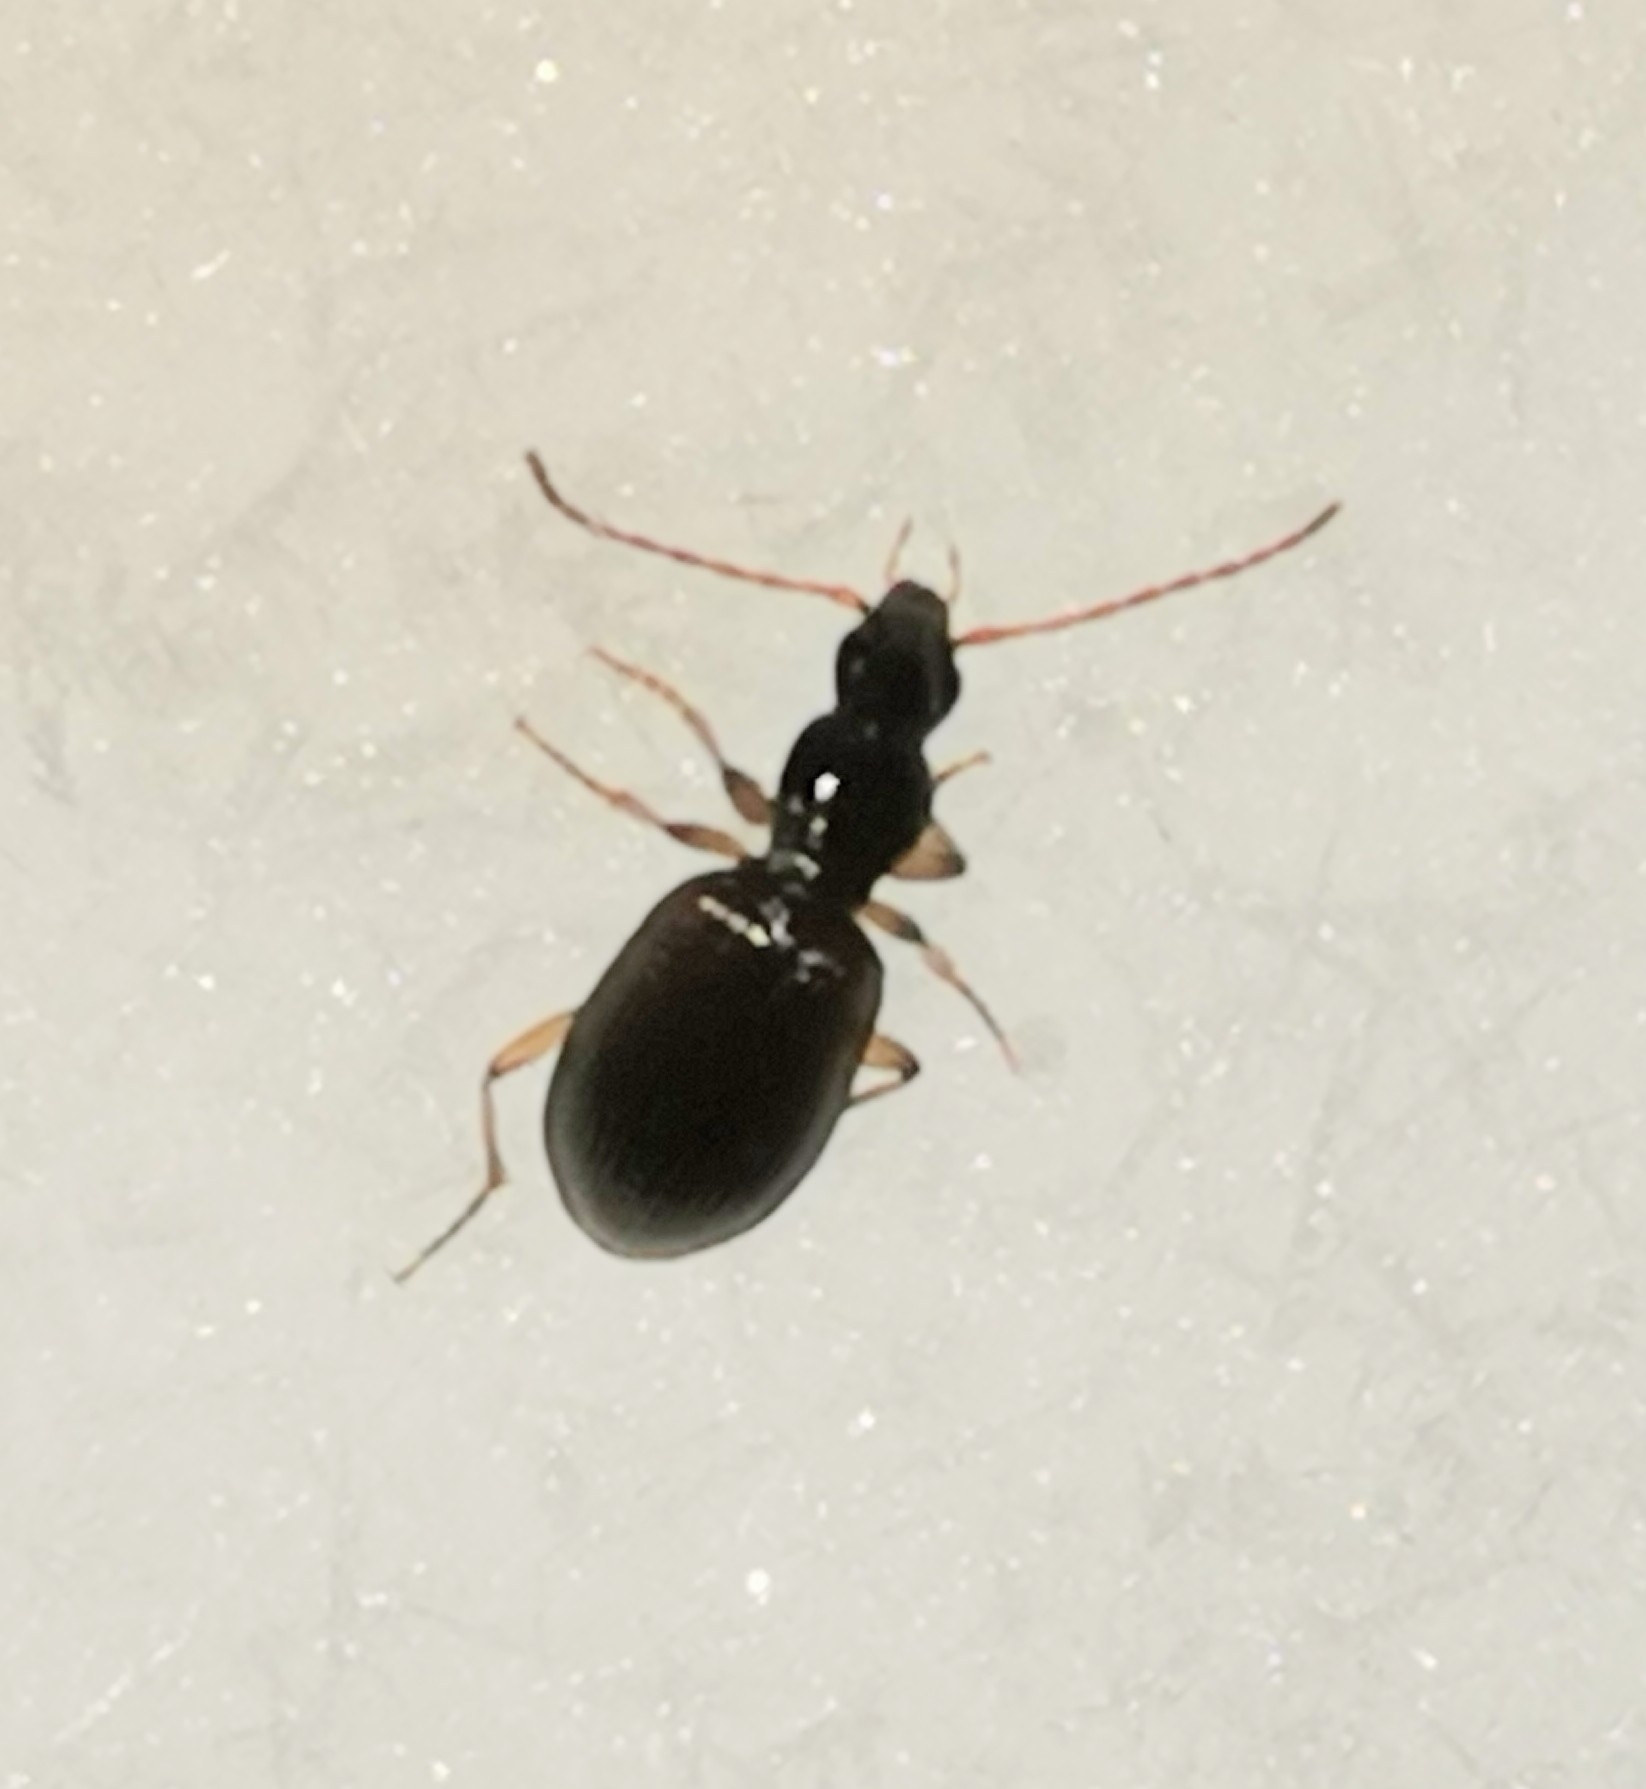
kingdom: Animalia
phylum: Arthropoda
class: Insecta
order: Coleoptera
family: Carabidae
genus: Oxypselaphus
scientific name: Oxypselaphus obscurus
